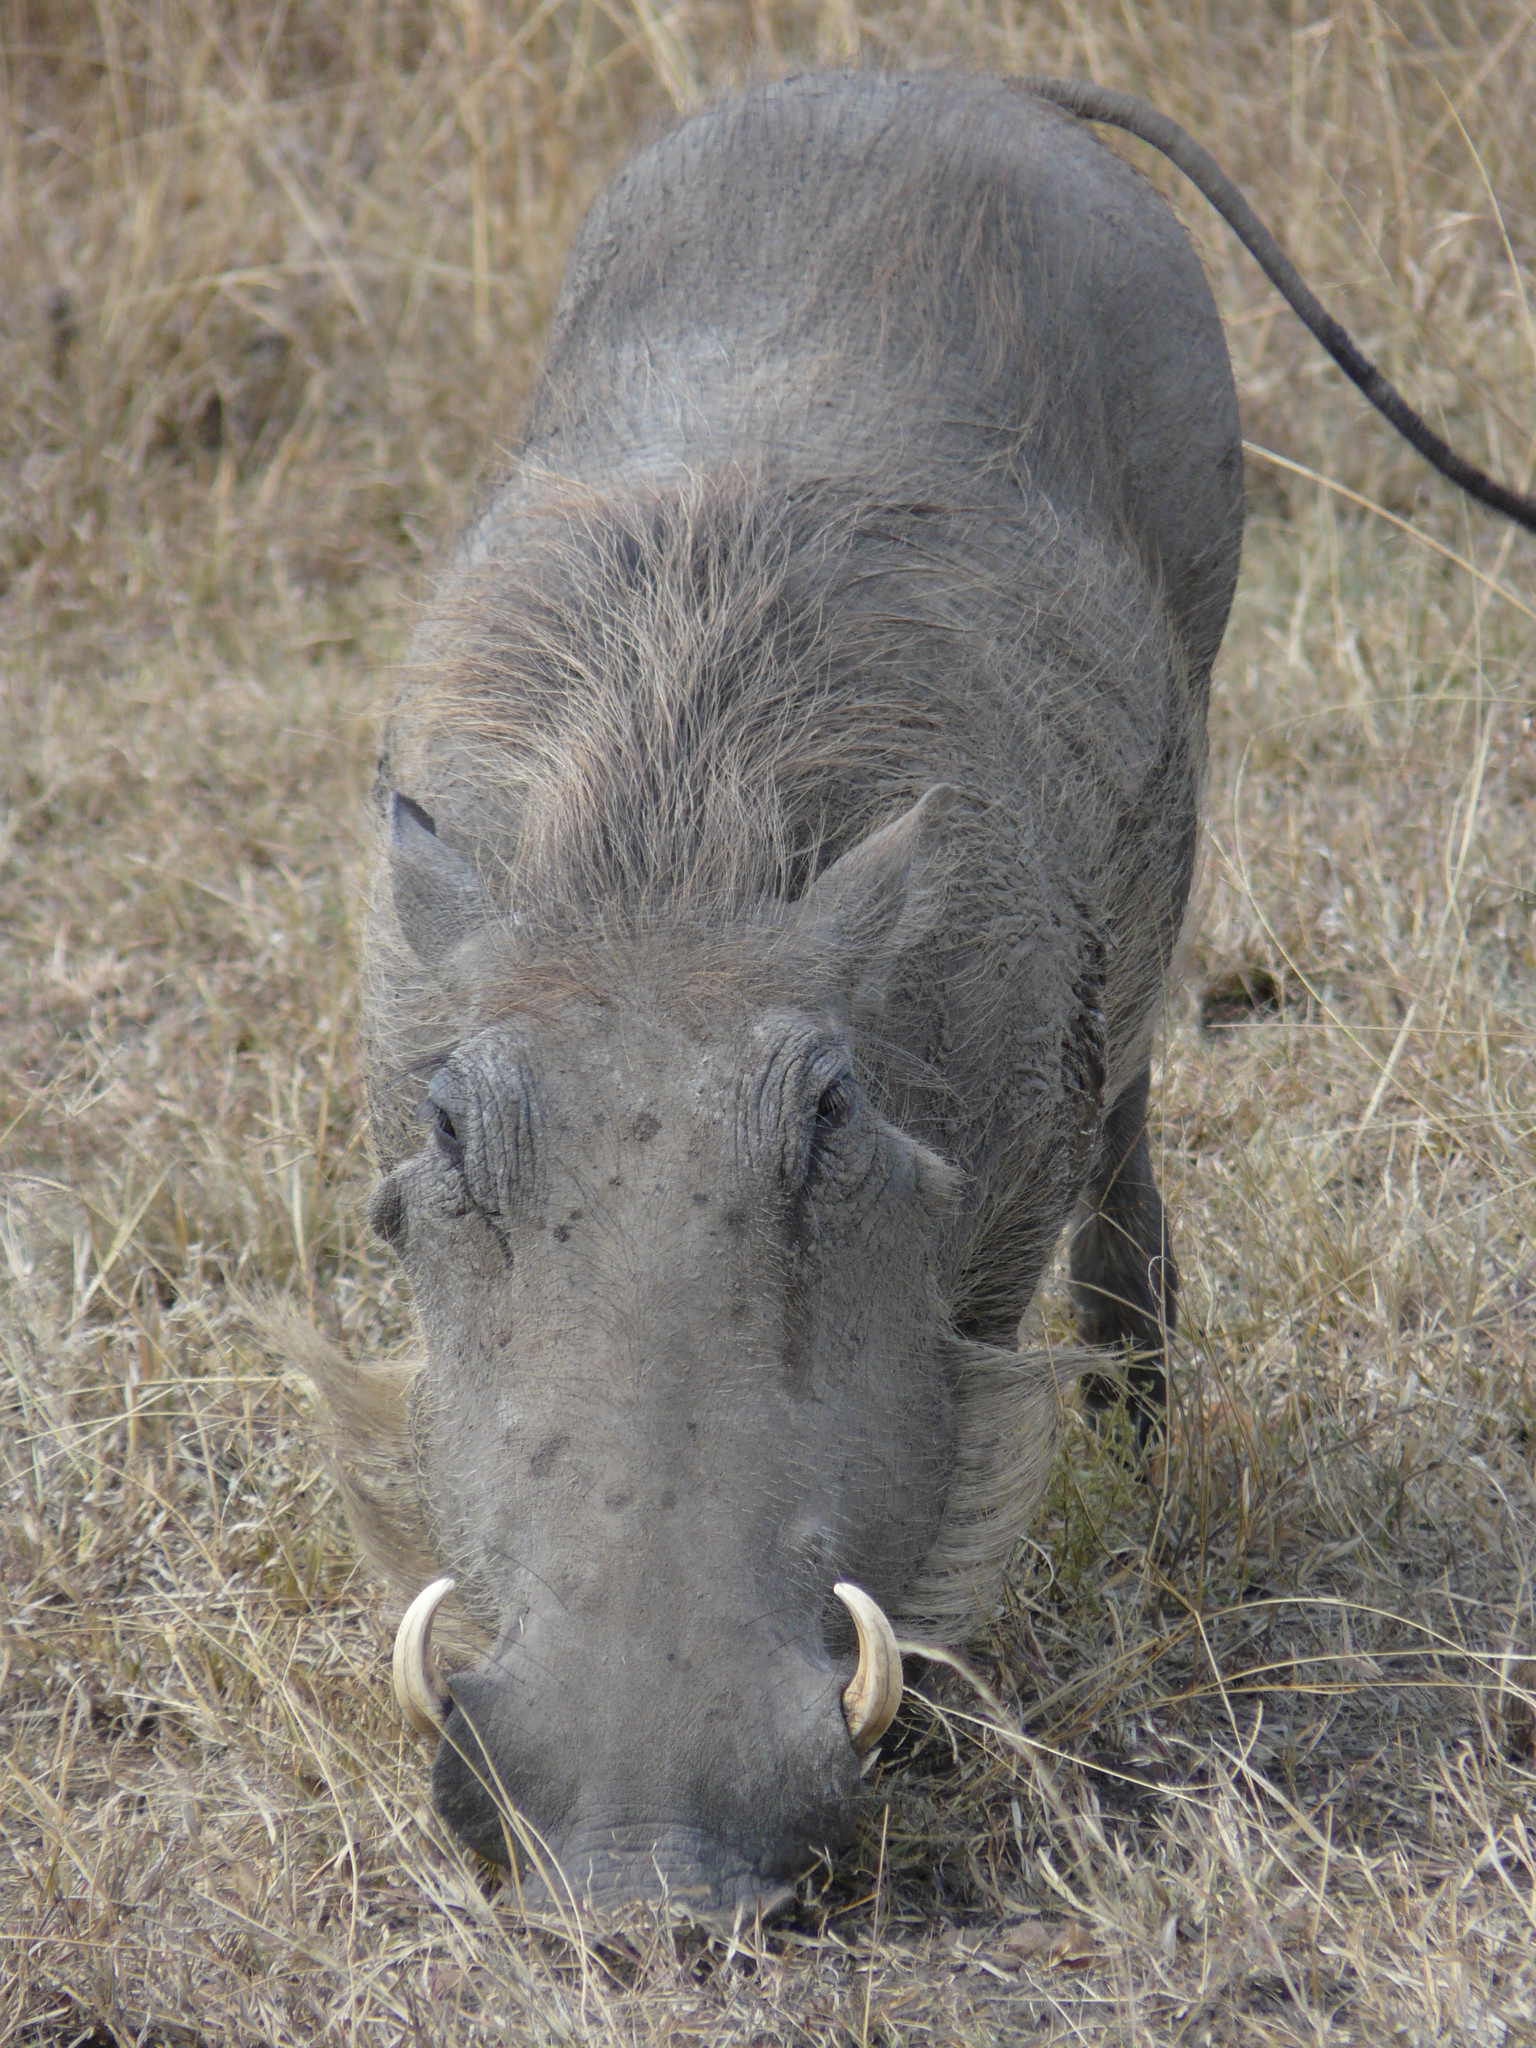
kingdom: Animalia
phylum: Chordata
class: Mammalia
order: Artiodactyla
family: Suidae
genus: Phacochoerus
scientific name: Phacochoerus africanus
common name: Common warthog
